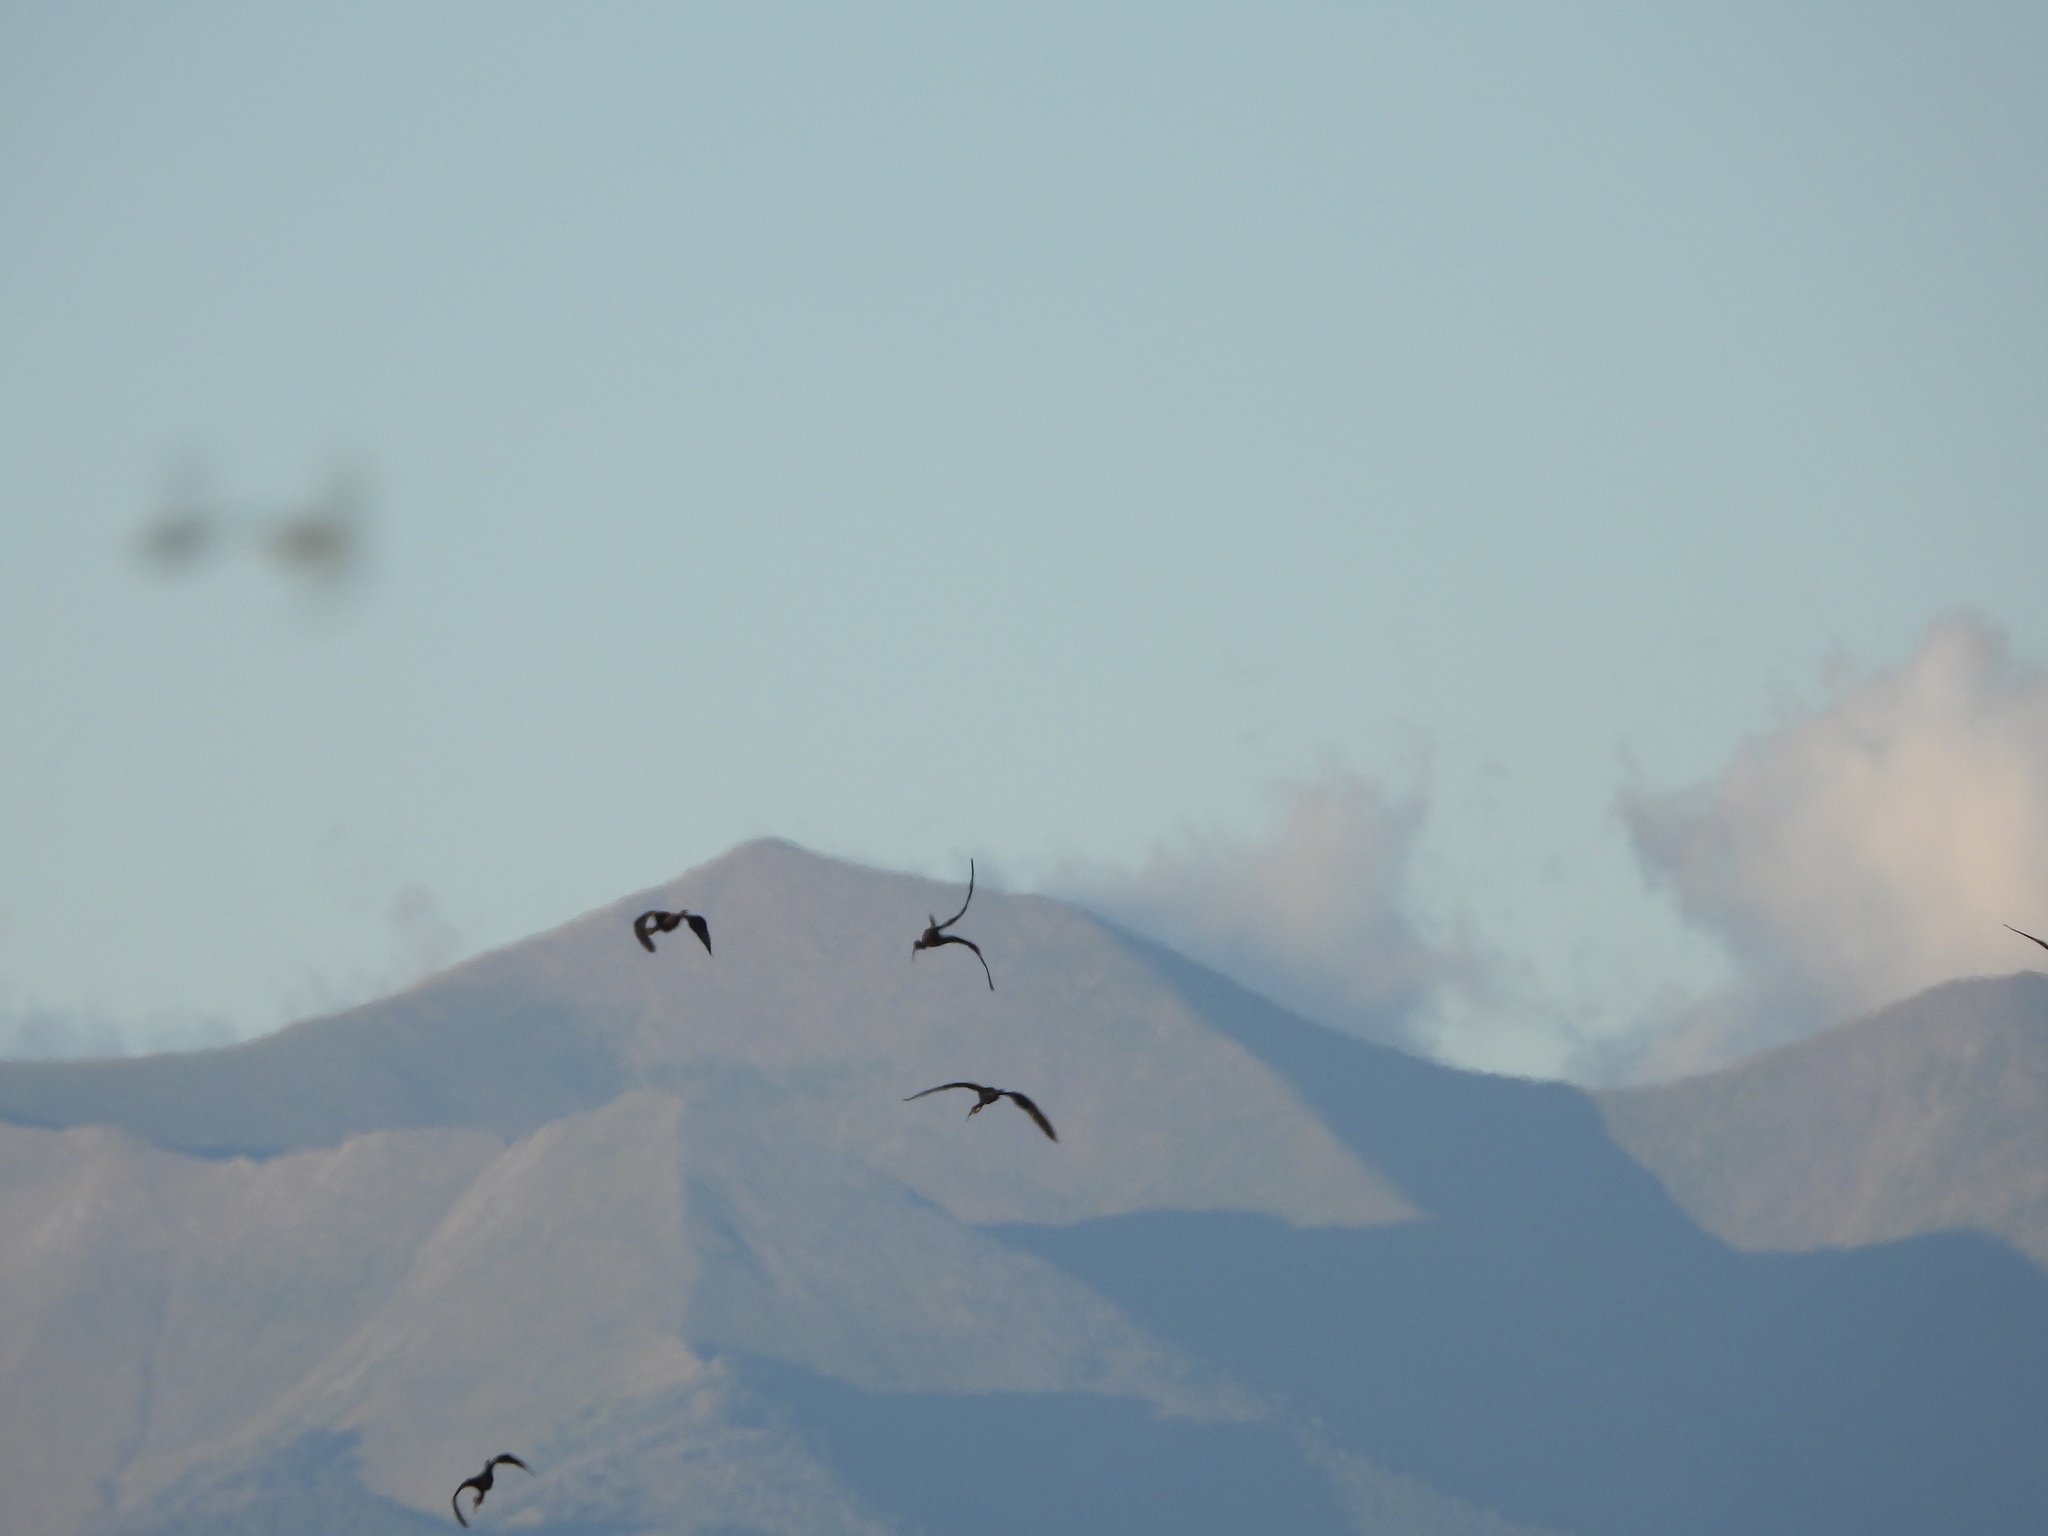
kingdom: Animalia
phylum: Chordata
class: Aves
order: Pelecaniformes
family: Threskiornithidae
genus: Plegadis
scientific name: Plegadis chihi
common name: White-faced ibis
